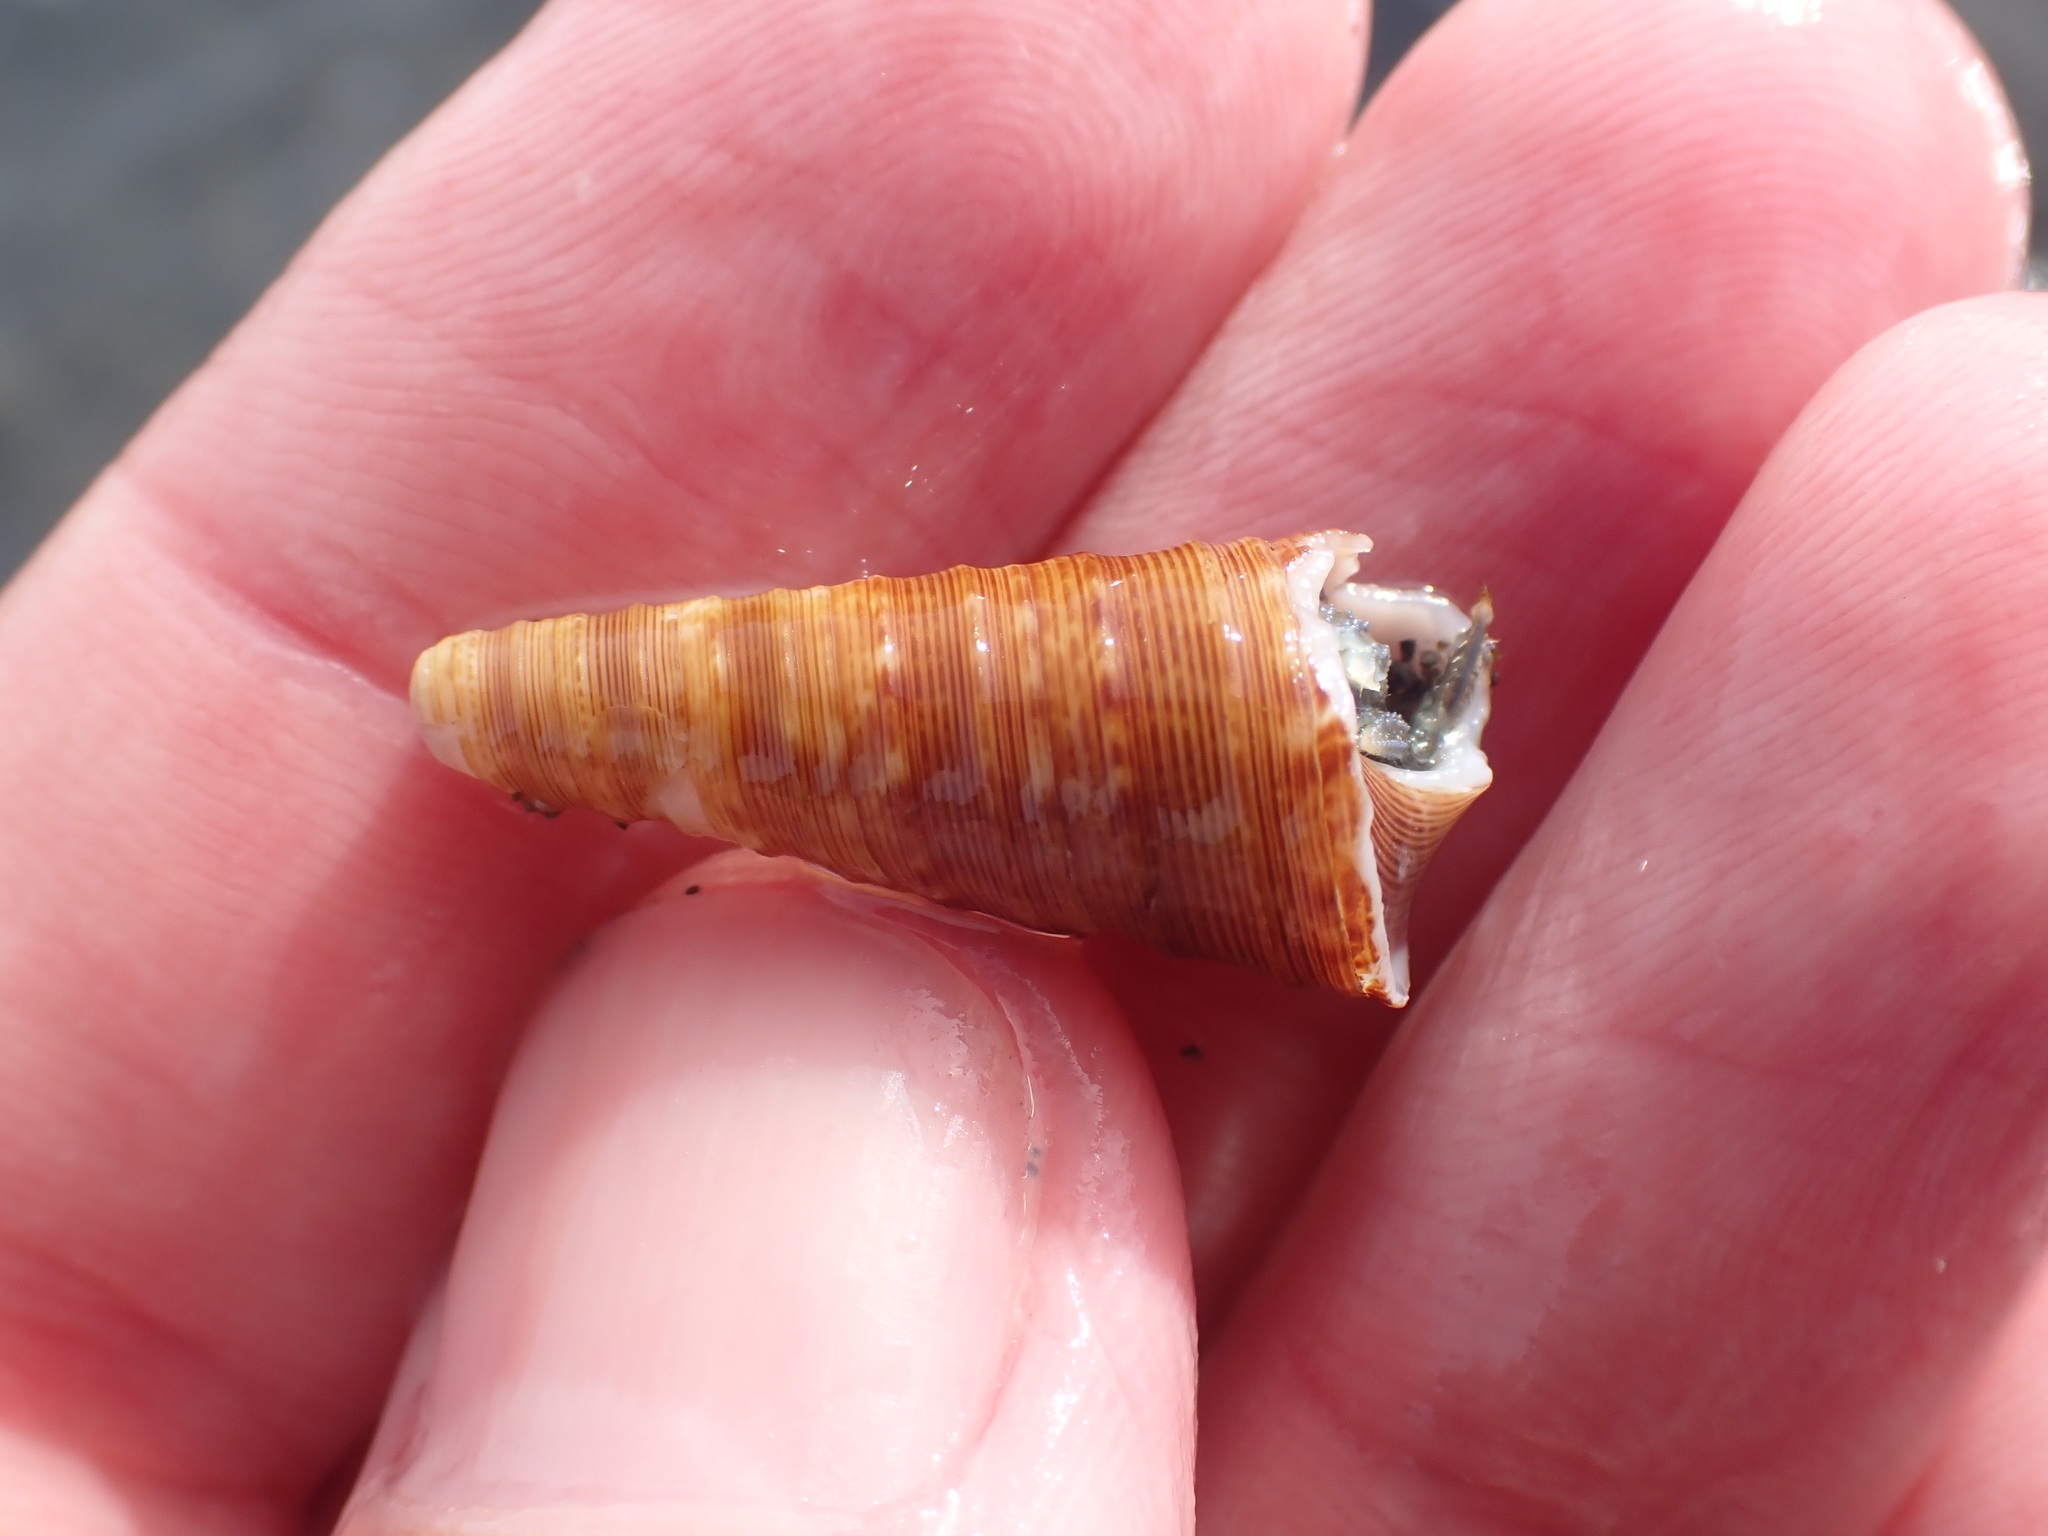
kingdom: Animalia
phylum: Mollusca
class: Gastropoda
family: Turritellidae
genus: Maoricolpus
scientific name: Maoricolpus roseus
